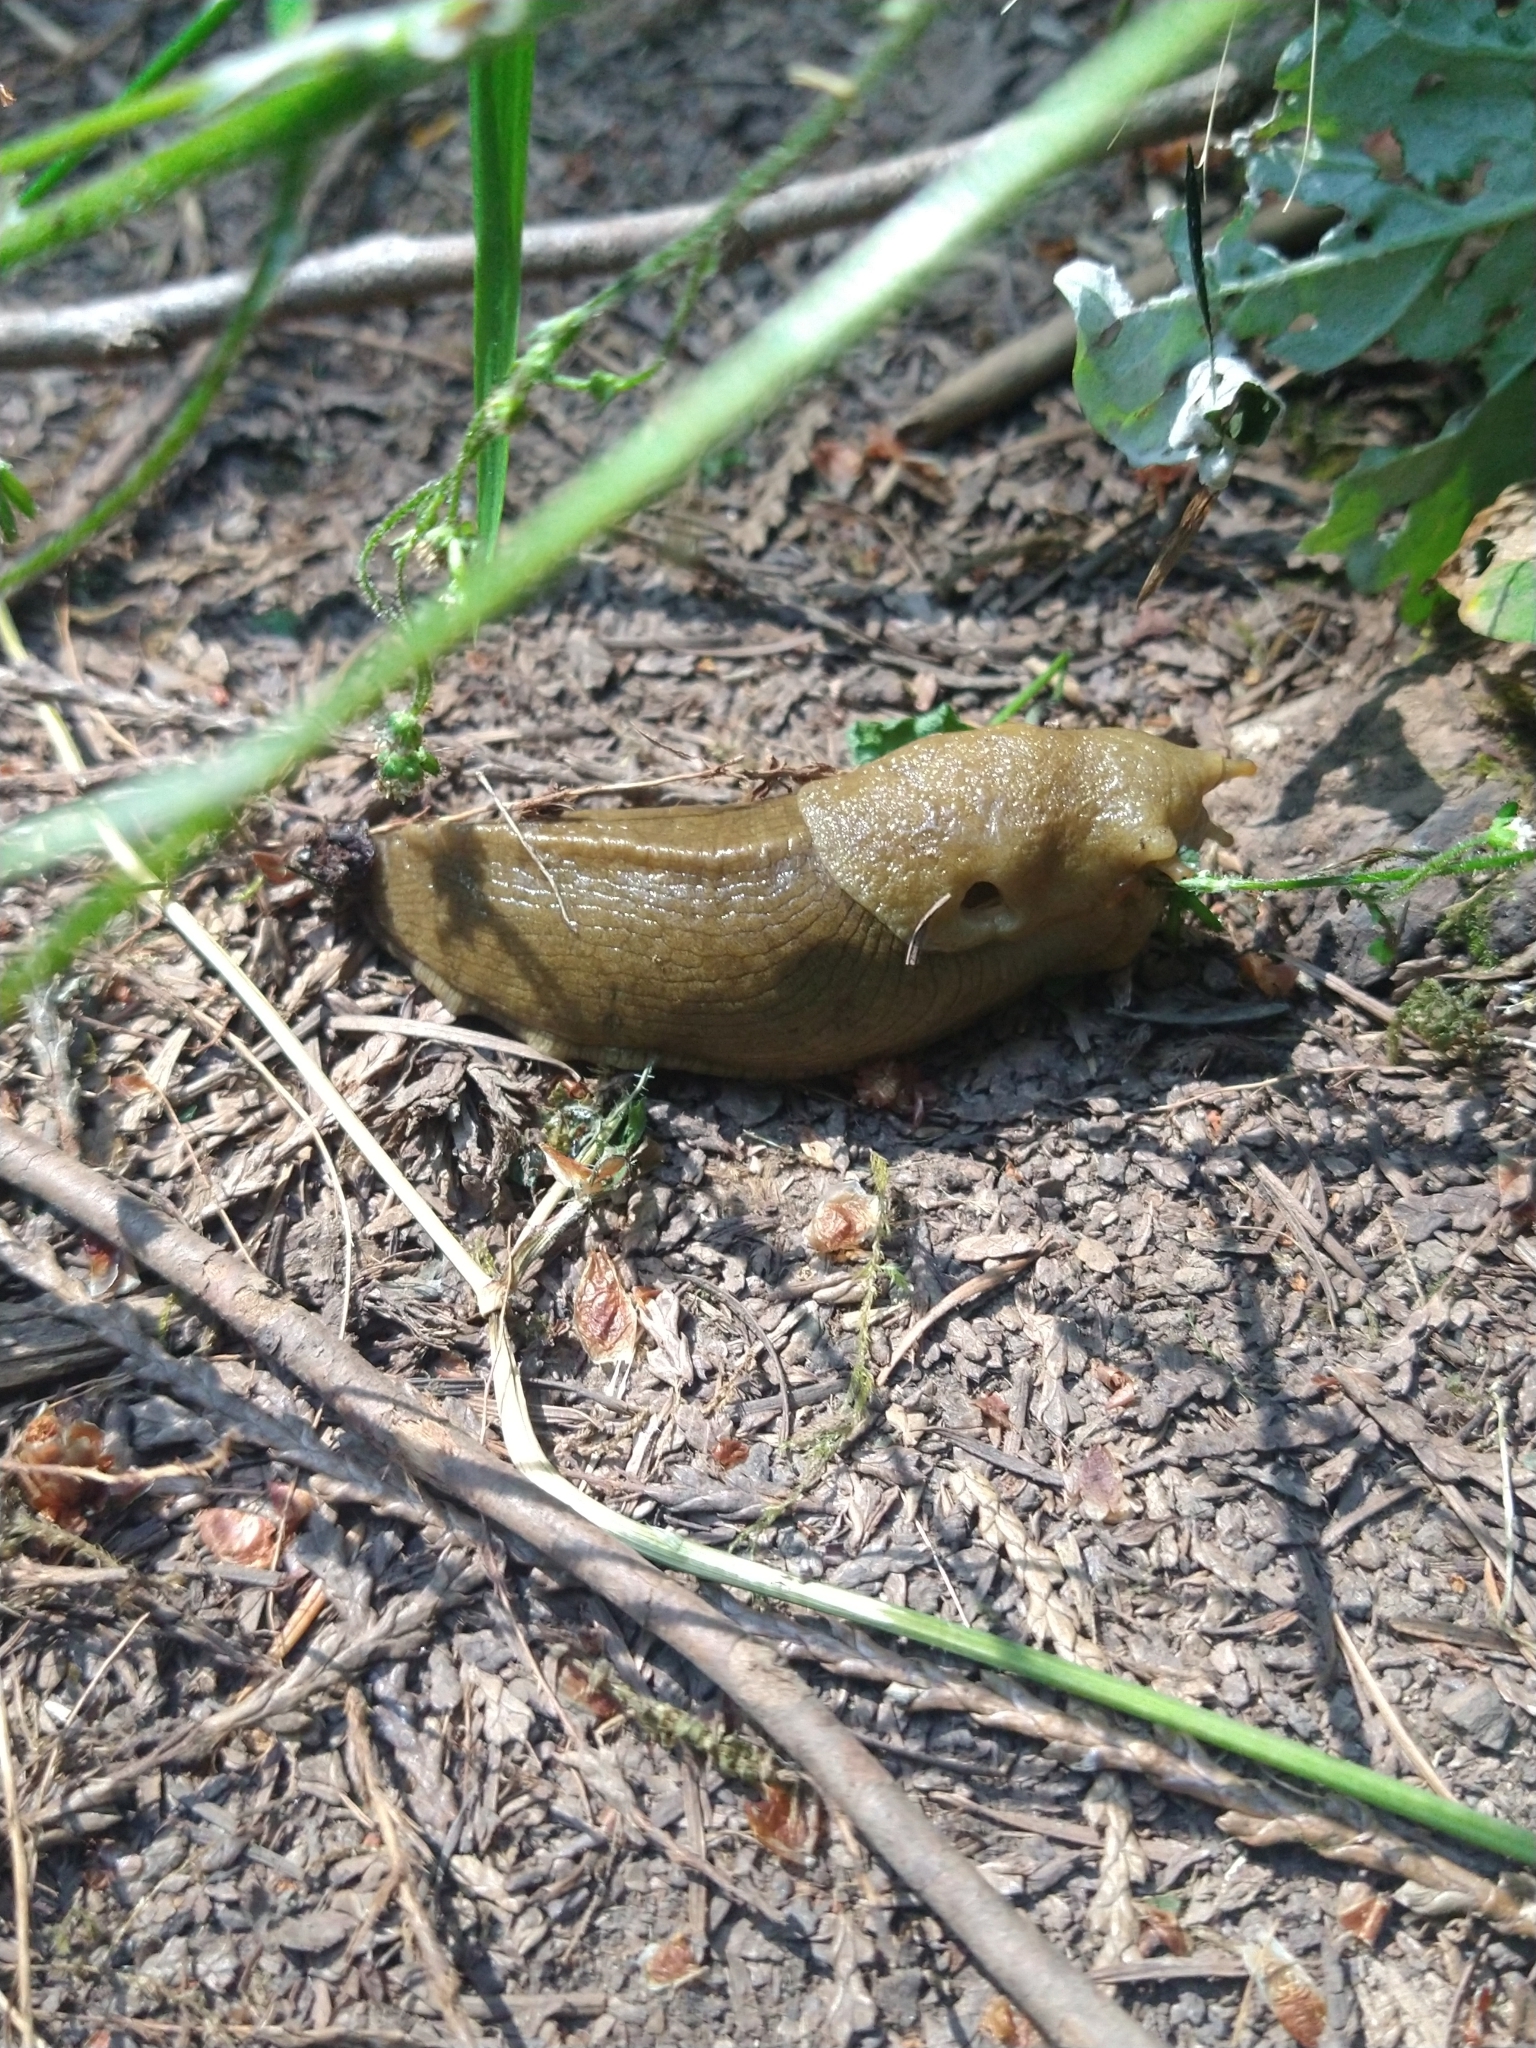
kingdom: Animalia
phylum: Mollusca
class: Gastropoda
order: Stylommatophora
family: Ariolimacidae
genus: Ariolimax
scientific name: Ariolimax columbianus
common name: Pacific banana slug
